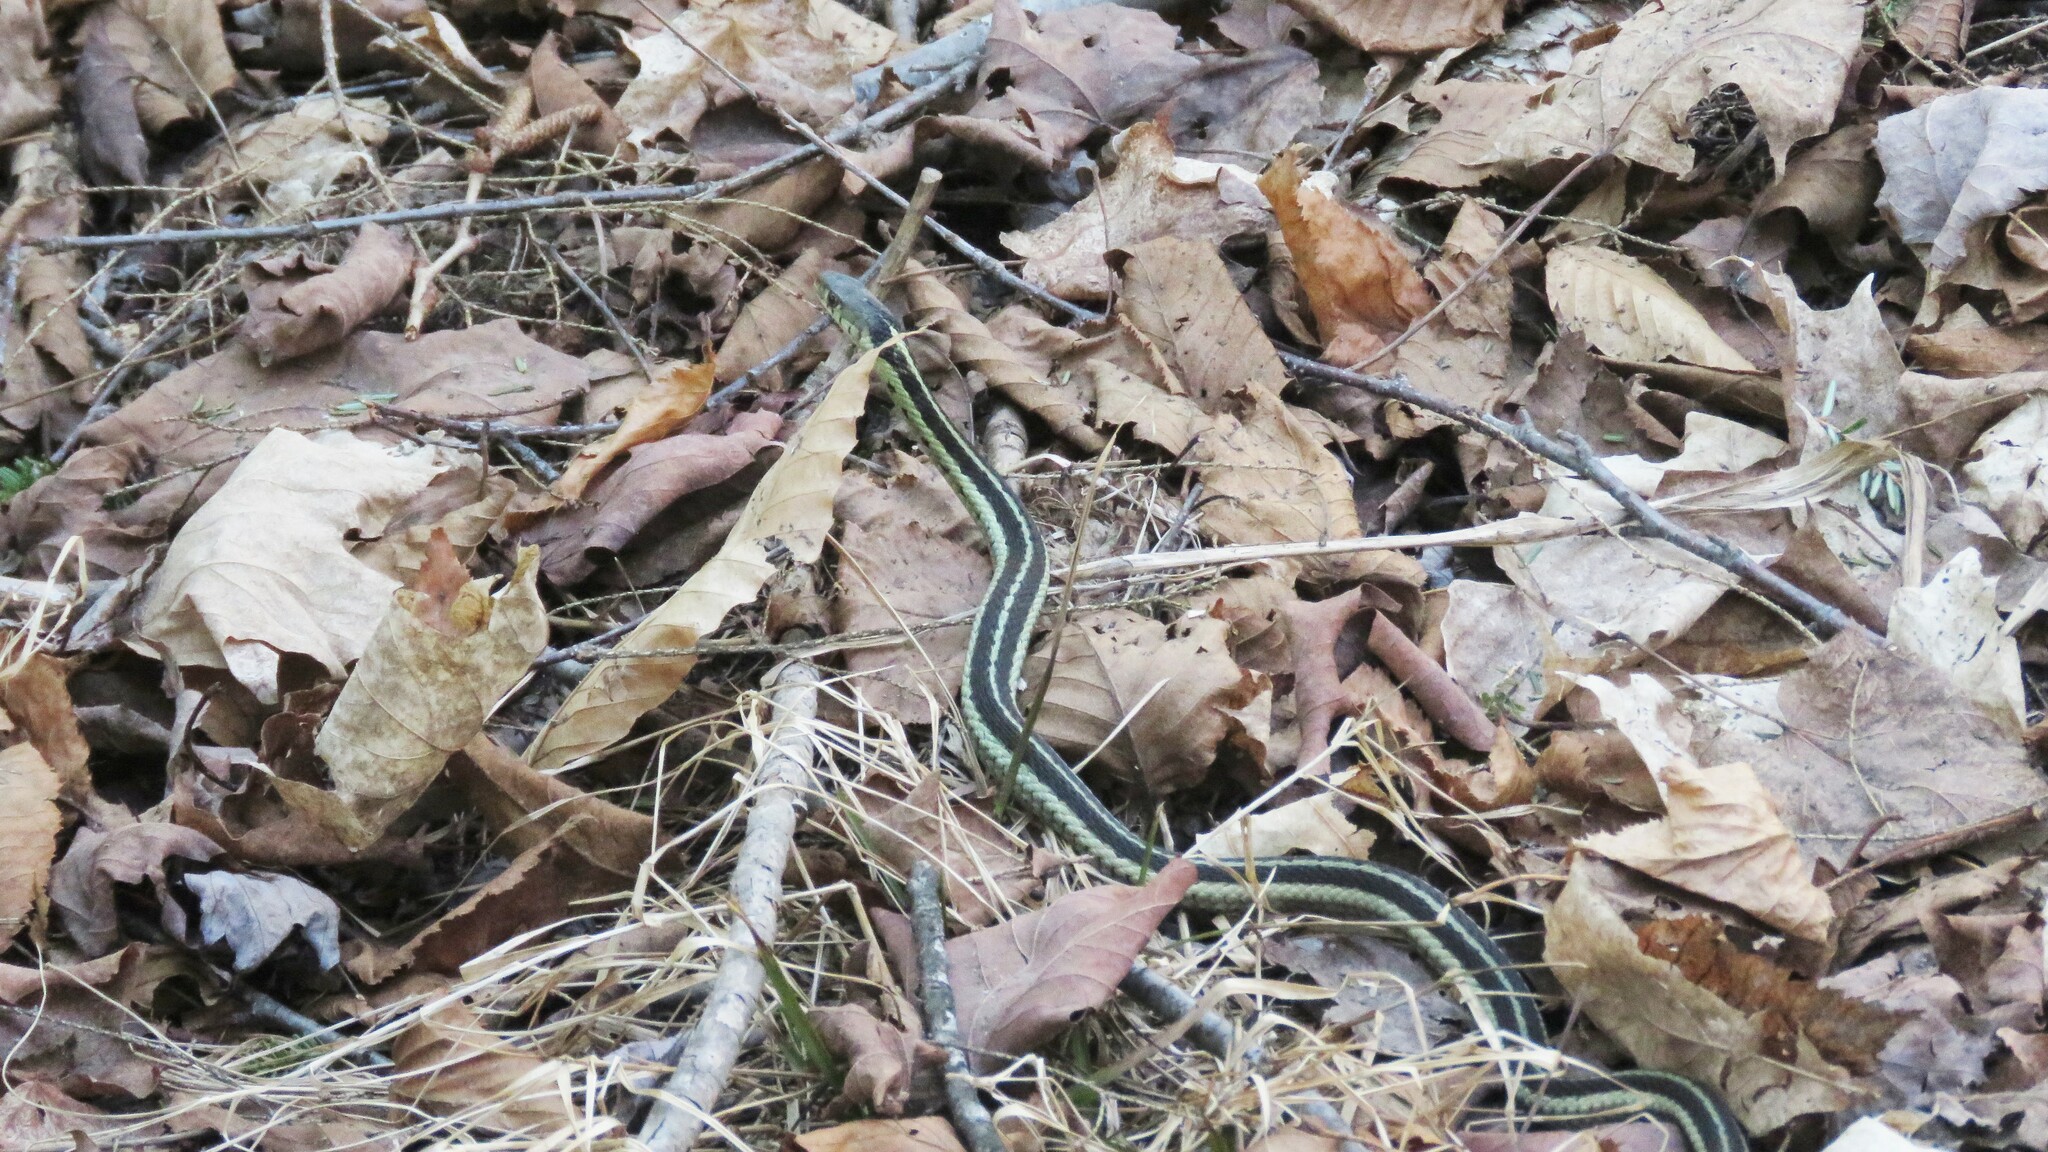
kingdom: Animalia
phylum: Chordata
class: Squamata
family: Colubridae
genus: Thamnophis
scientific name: Thamnophis sirtalis
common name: Common garter snake
